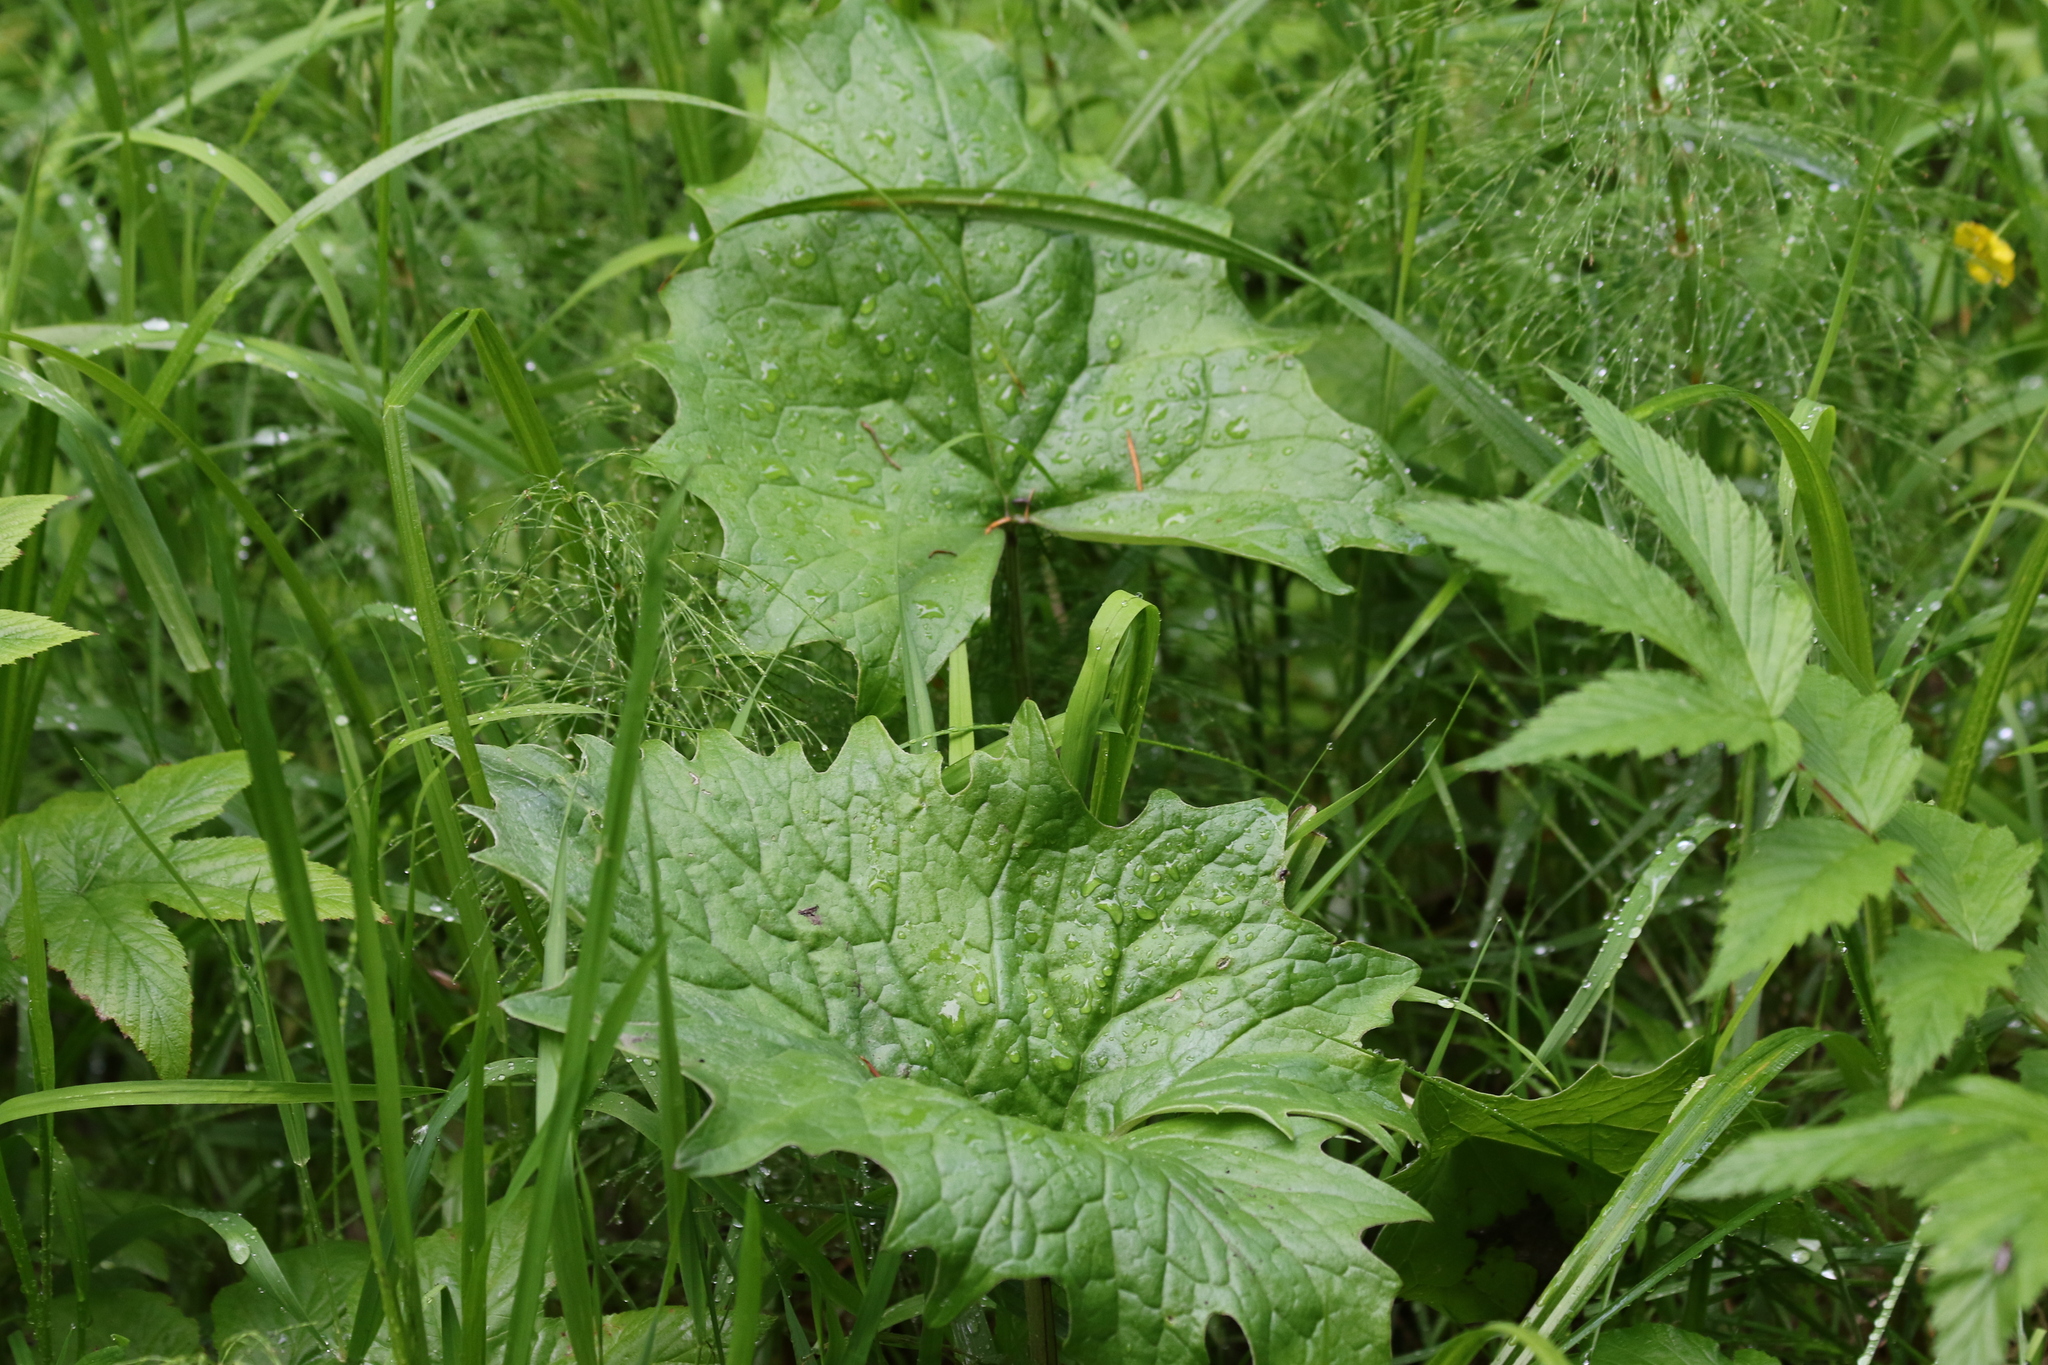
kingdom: Plantae
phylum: Tracheophyta
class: Magnoliopsida
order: Asterales
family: Asteraceae
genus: Petasites
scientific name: Petasites frigidus
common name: Arctic butterbur
